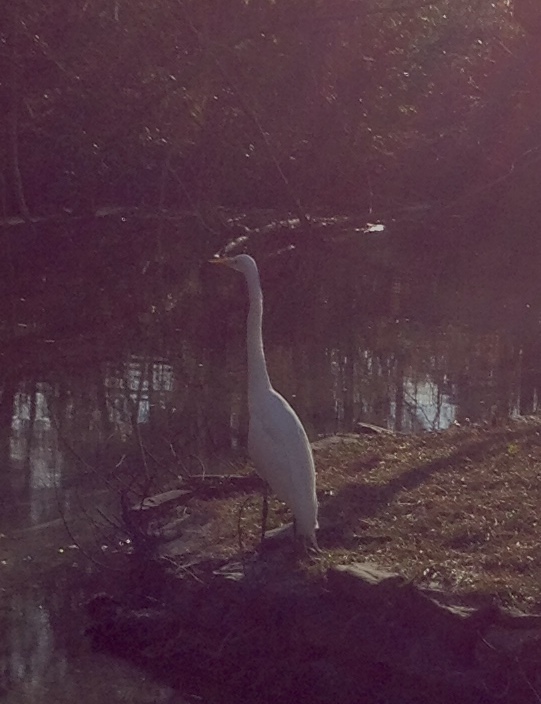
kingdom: Animalia
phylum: Chordata
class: Aves
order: Pelecaniformes
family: Ardeidae
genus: Ardea
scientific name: Ardea alba
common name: Great egret
